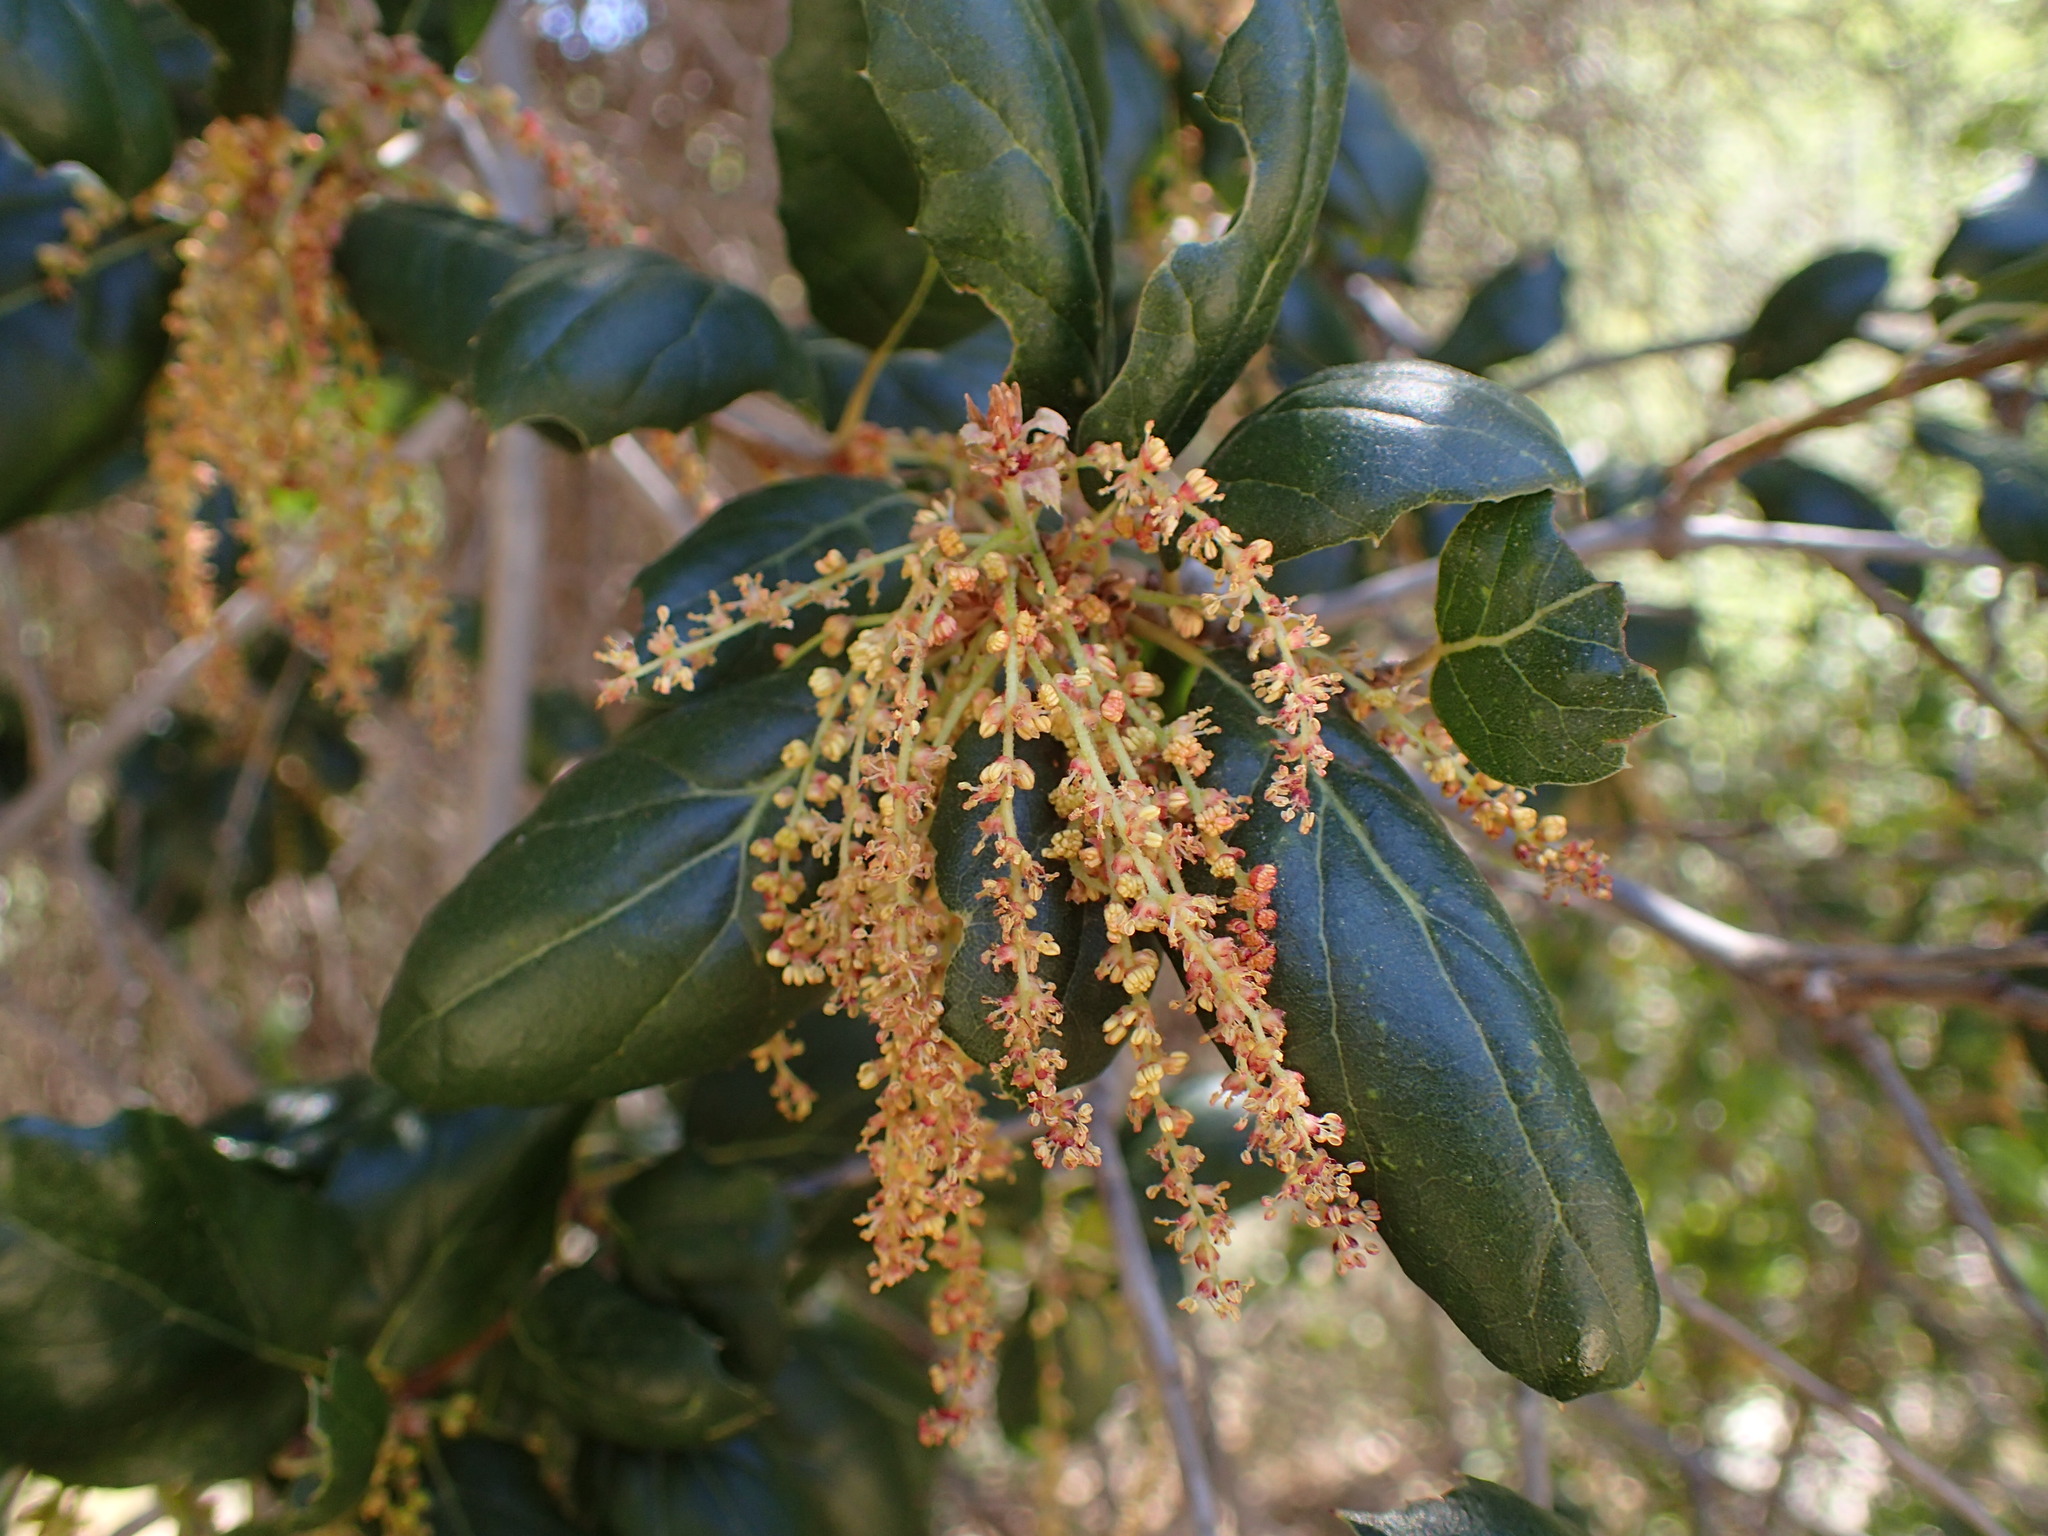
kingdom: Plantae
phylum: Tracheophyta
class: Magnoliopsida
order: Fagales
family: Fagaceae
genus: Quercus
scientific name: Quercus agrifolia
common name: California live oak
